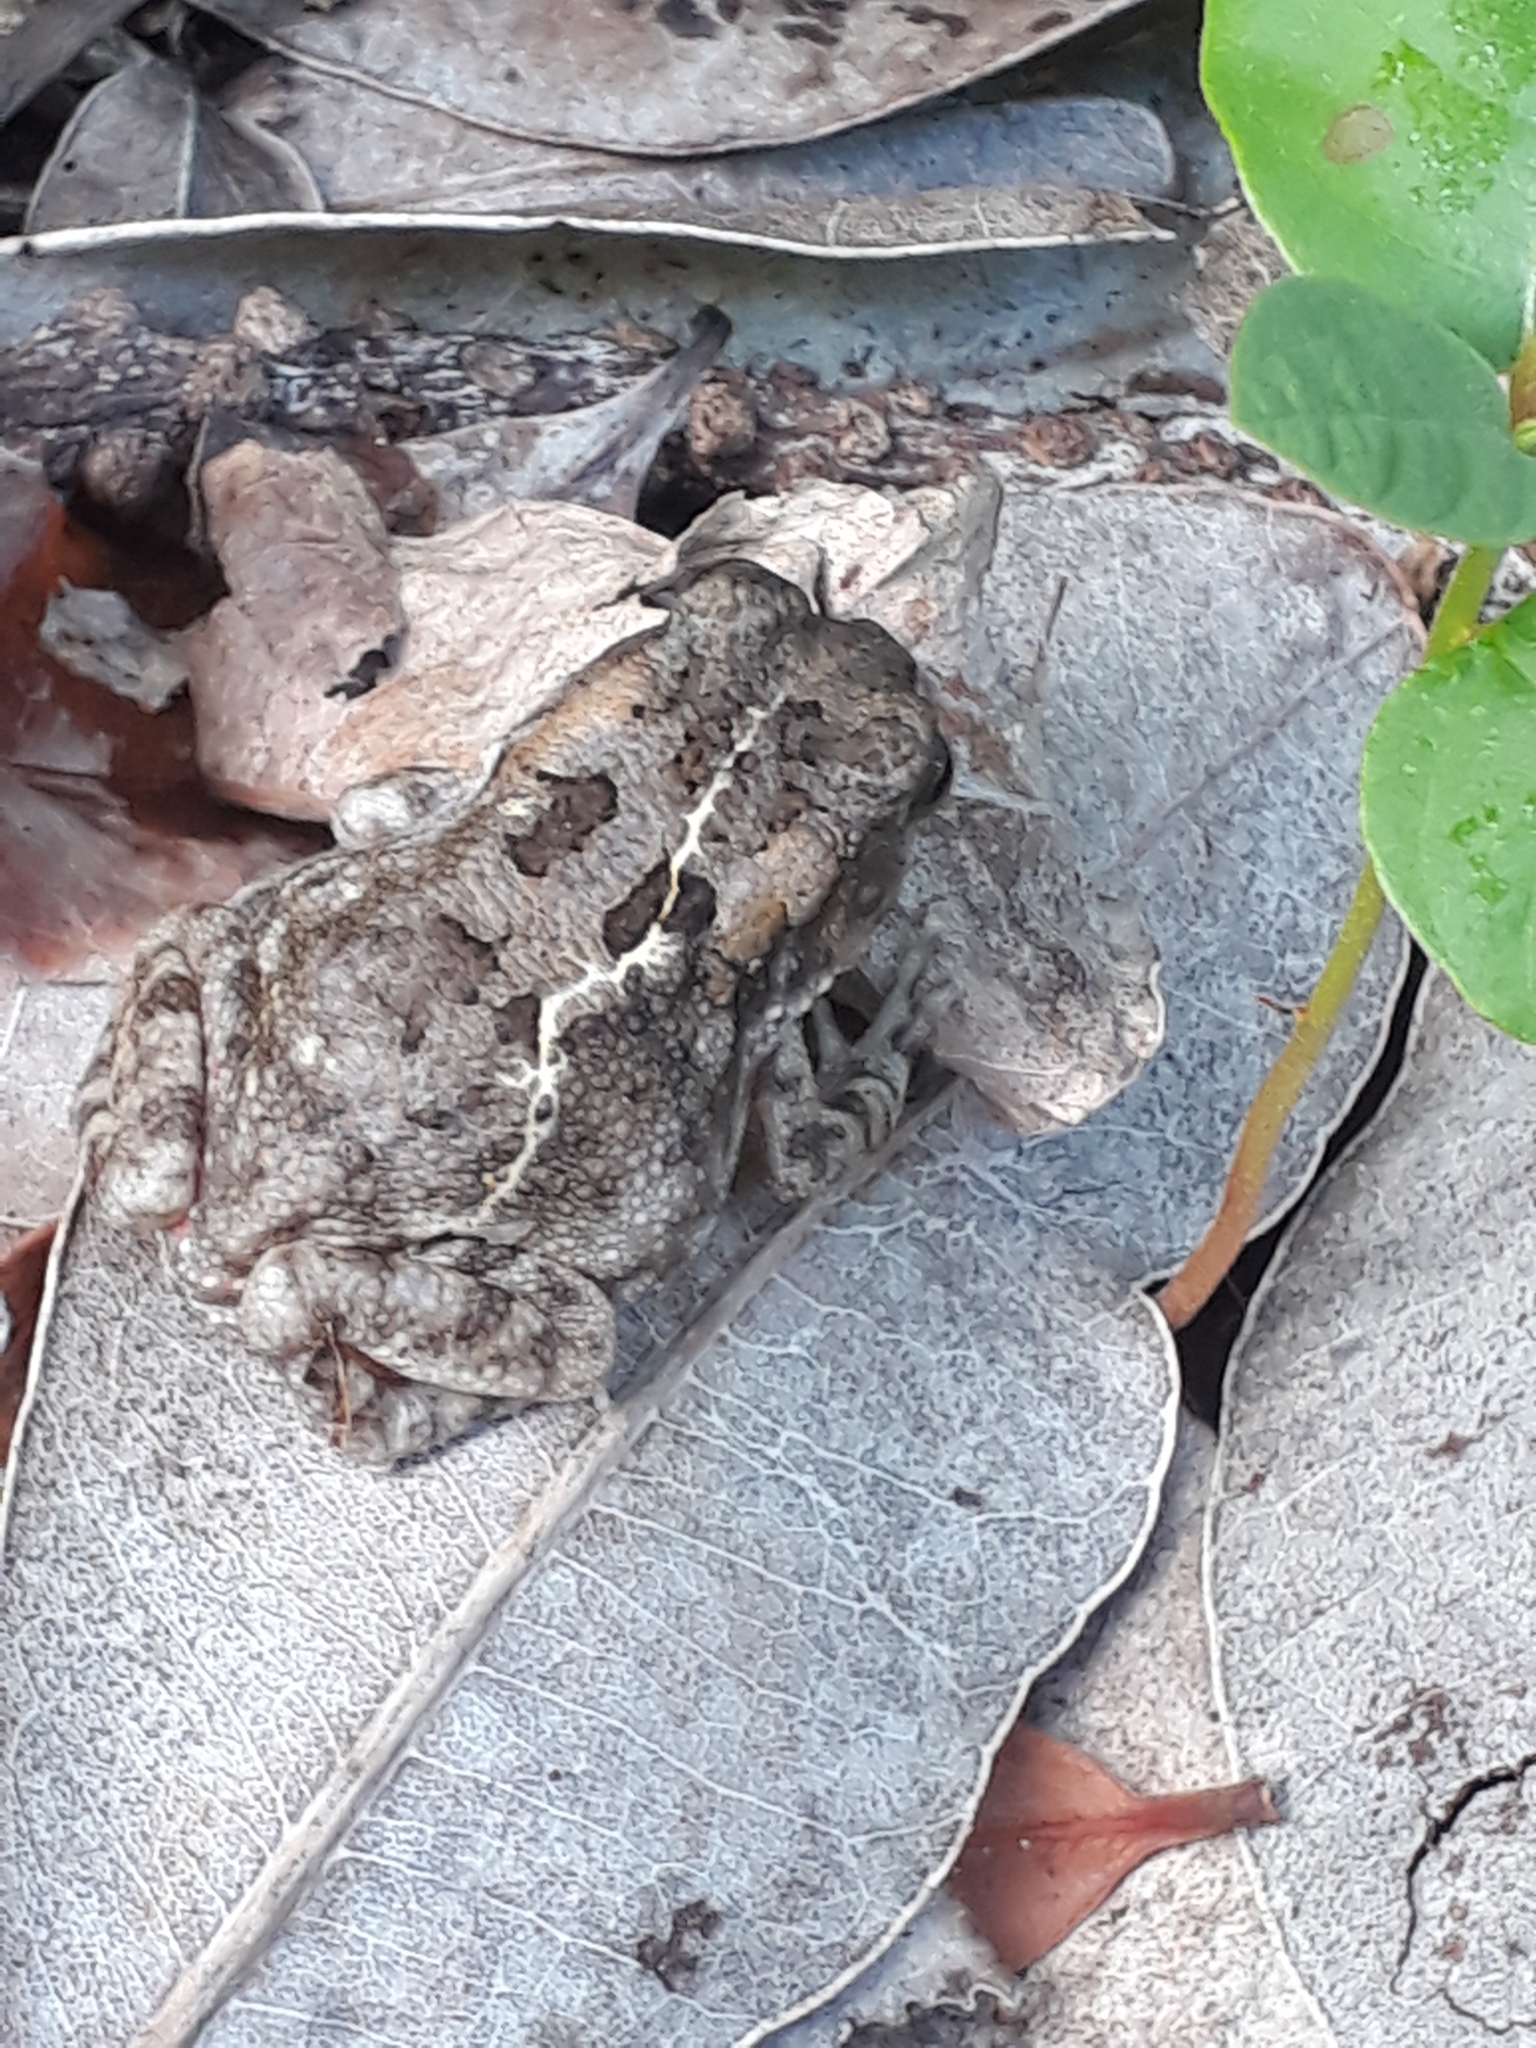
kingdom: Animalia
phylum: Chordata
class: Amphibia
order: Anura
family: Bufonidae
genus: Sclerophrys
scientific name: Sclerophrys gutturalis
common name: African common toad
